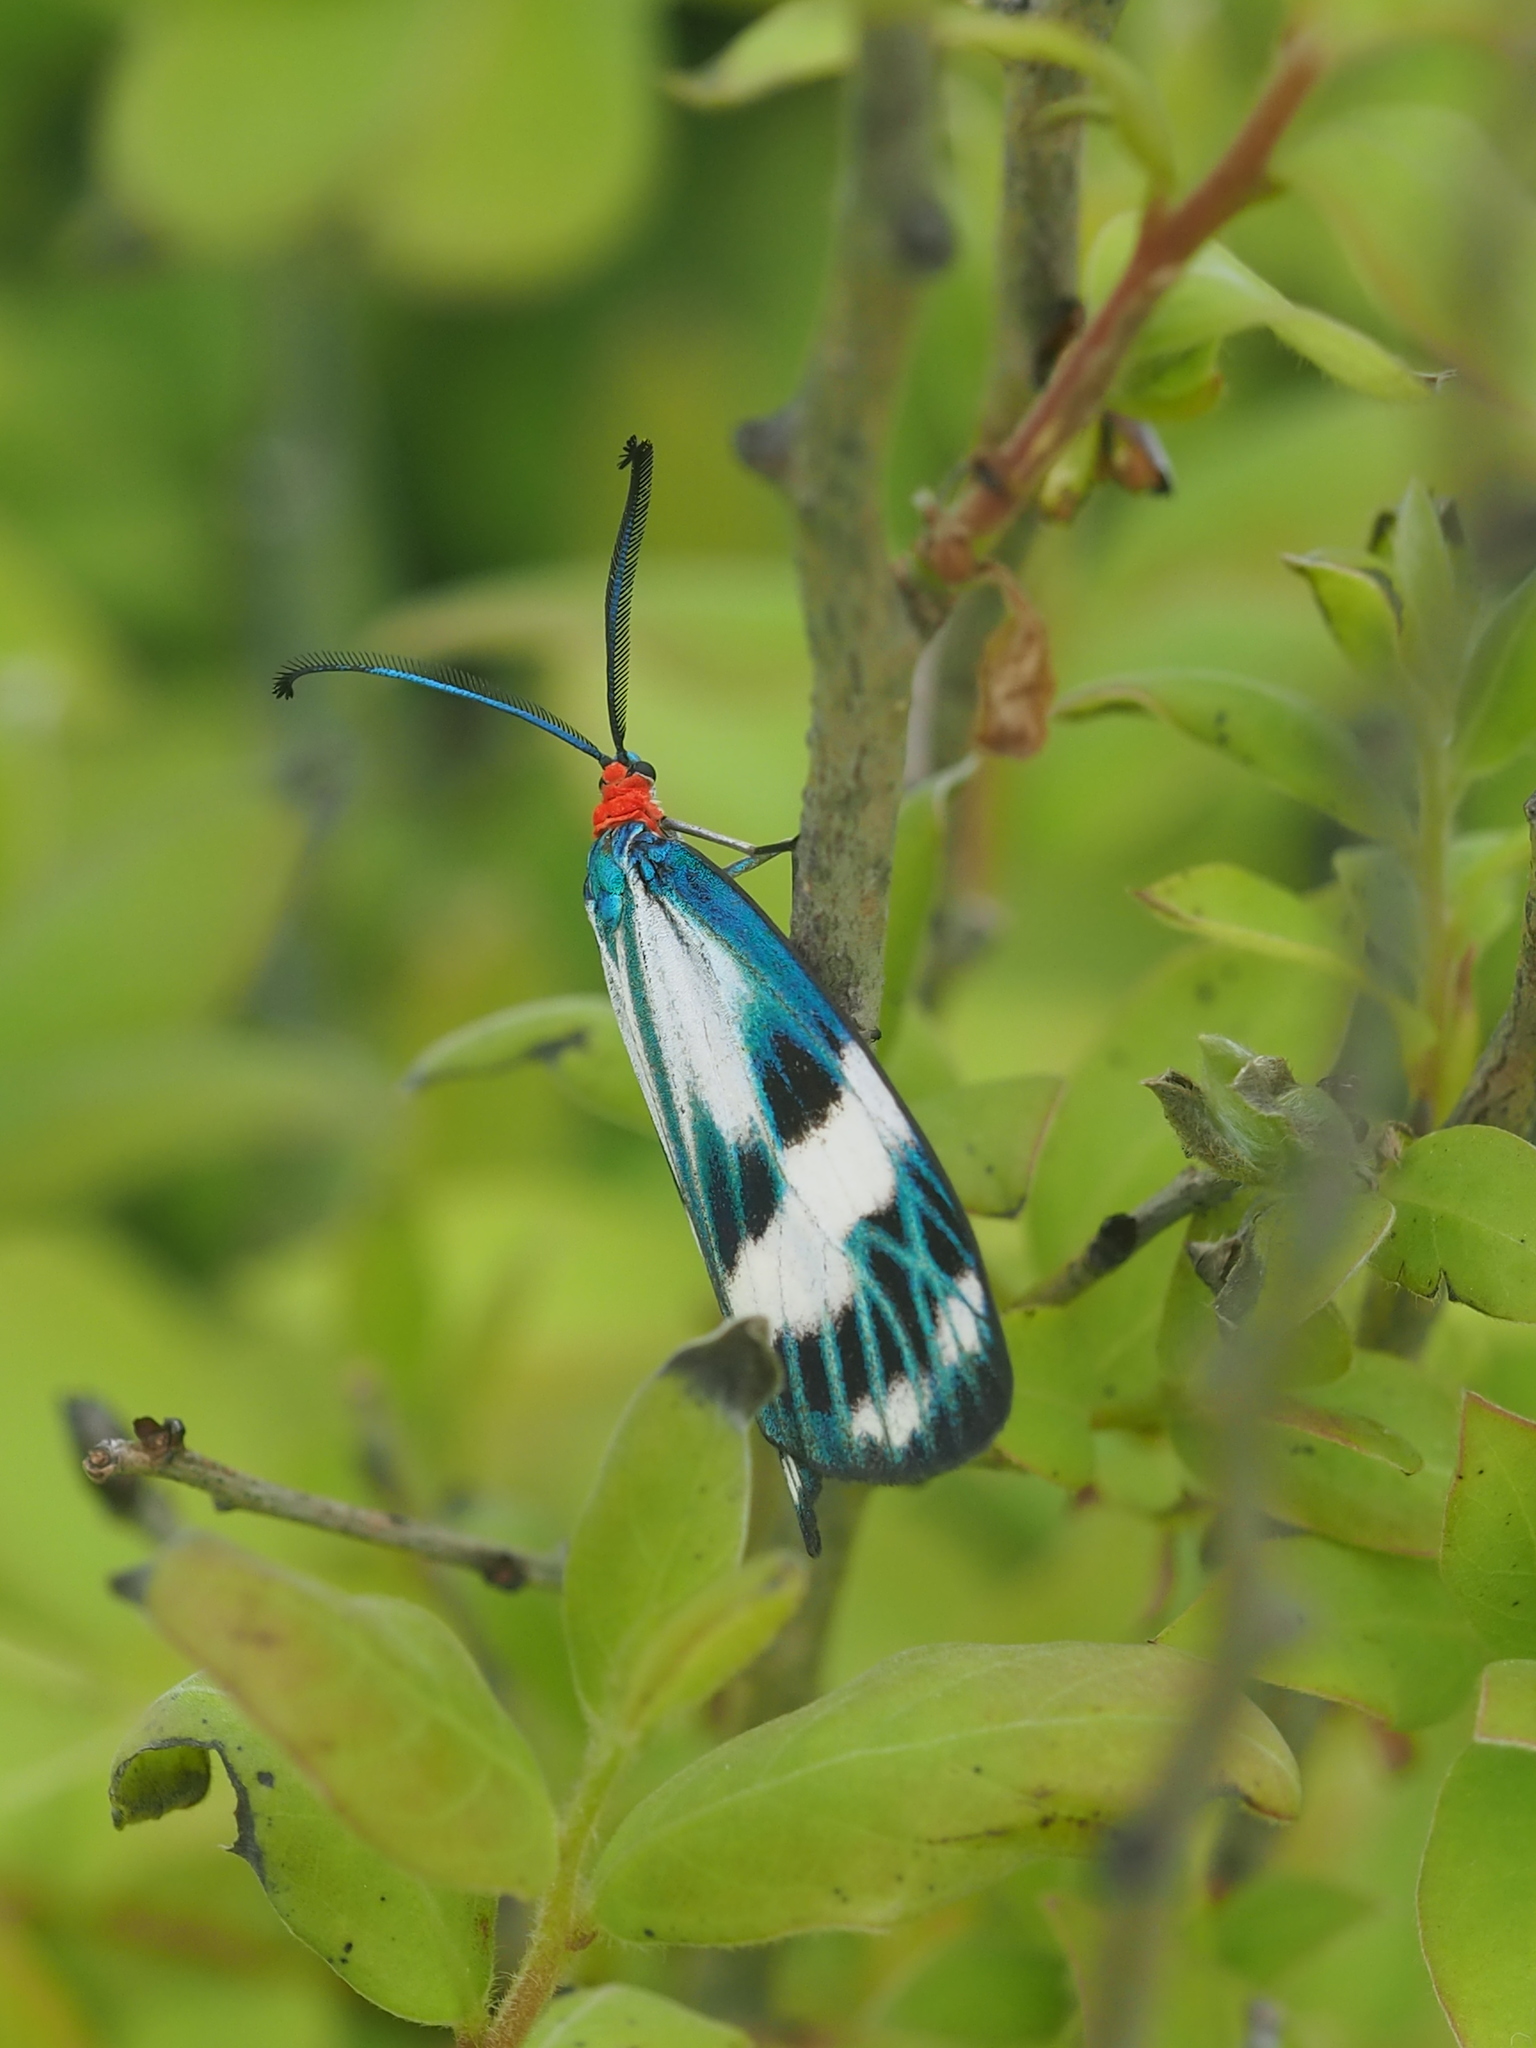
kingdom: Animalia
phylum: Arthropoda
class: Insecta
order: Lepidoptera
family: Zygaenidae
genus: Chalcosia
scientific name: Chalcosia pectinicornis
